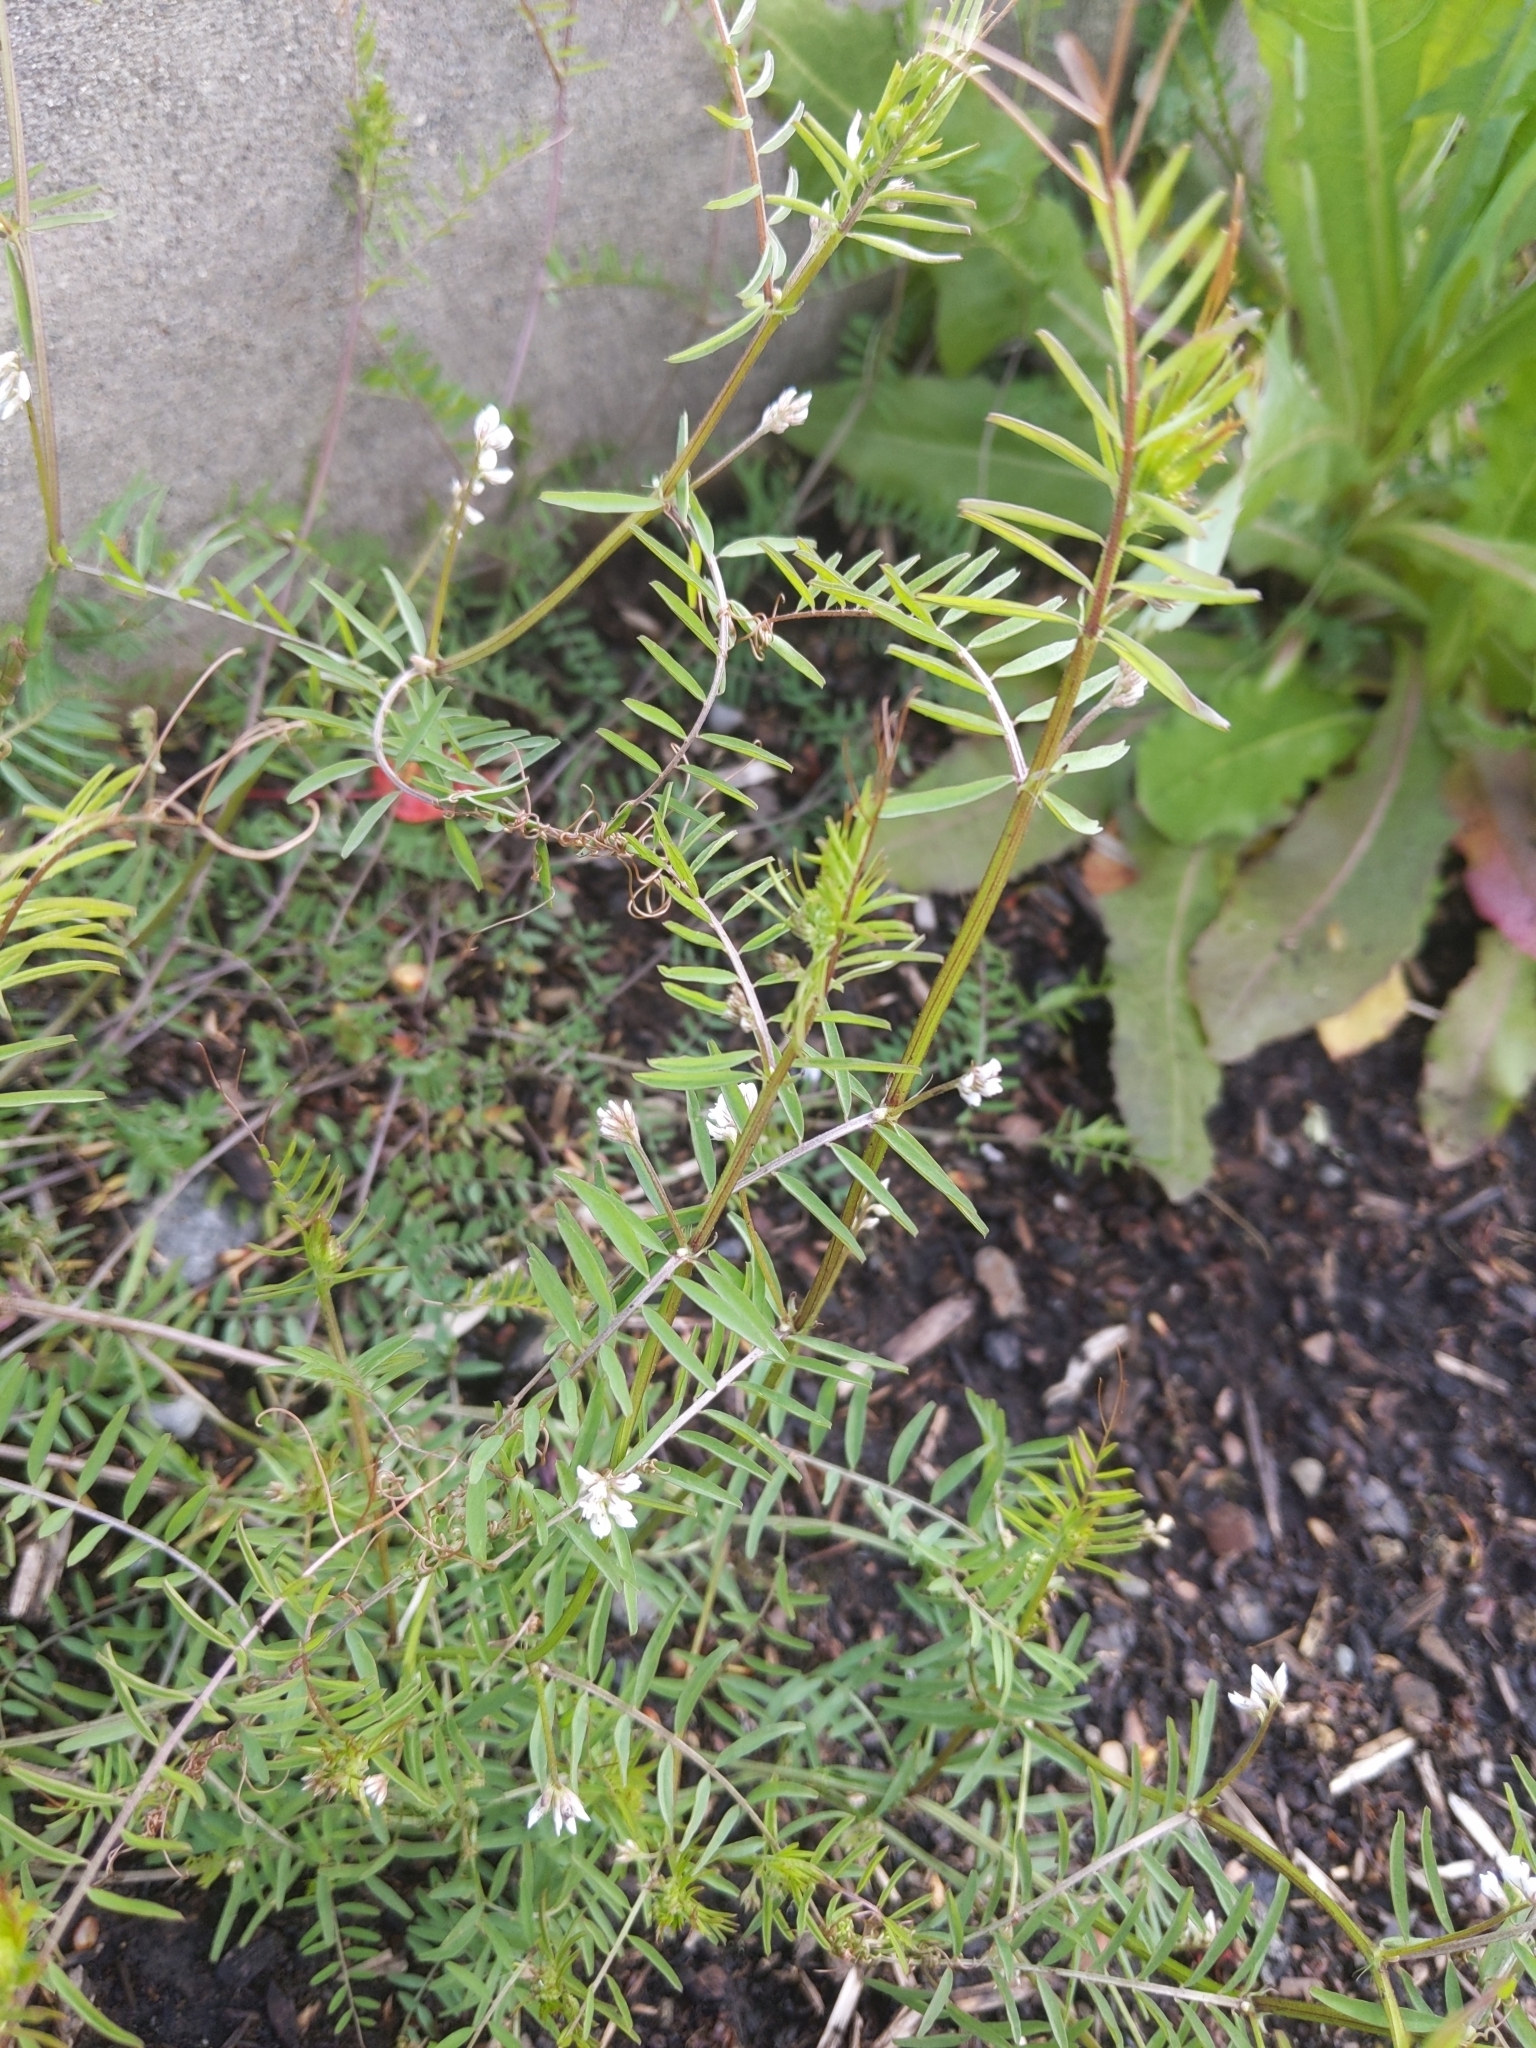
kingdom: Plantae
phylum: Tracheophyta
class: Magnoliopsida
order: Fabales
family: Fabaceae
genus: Vicia
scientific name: Vicia hirsuta
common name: Tiny vetch
